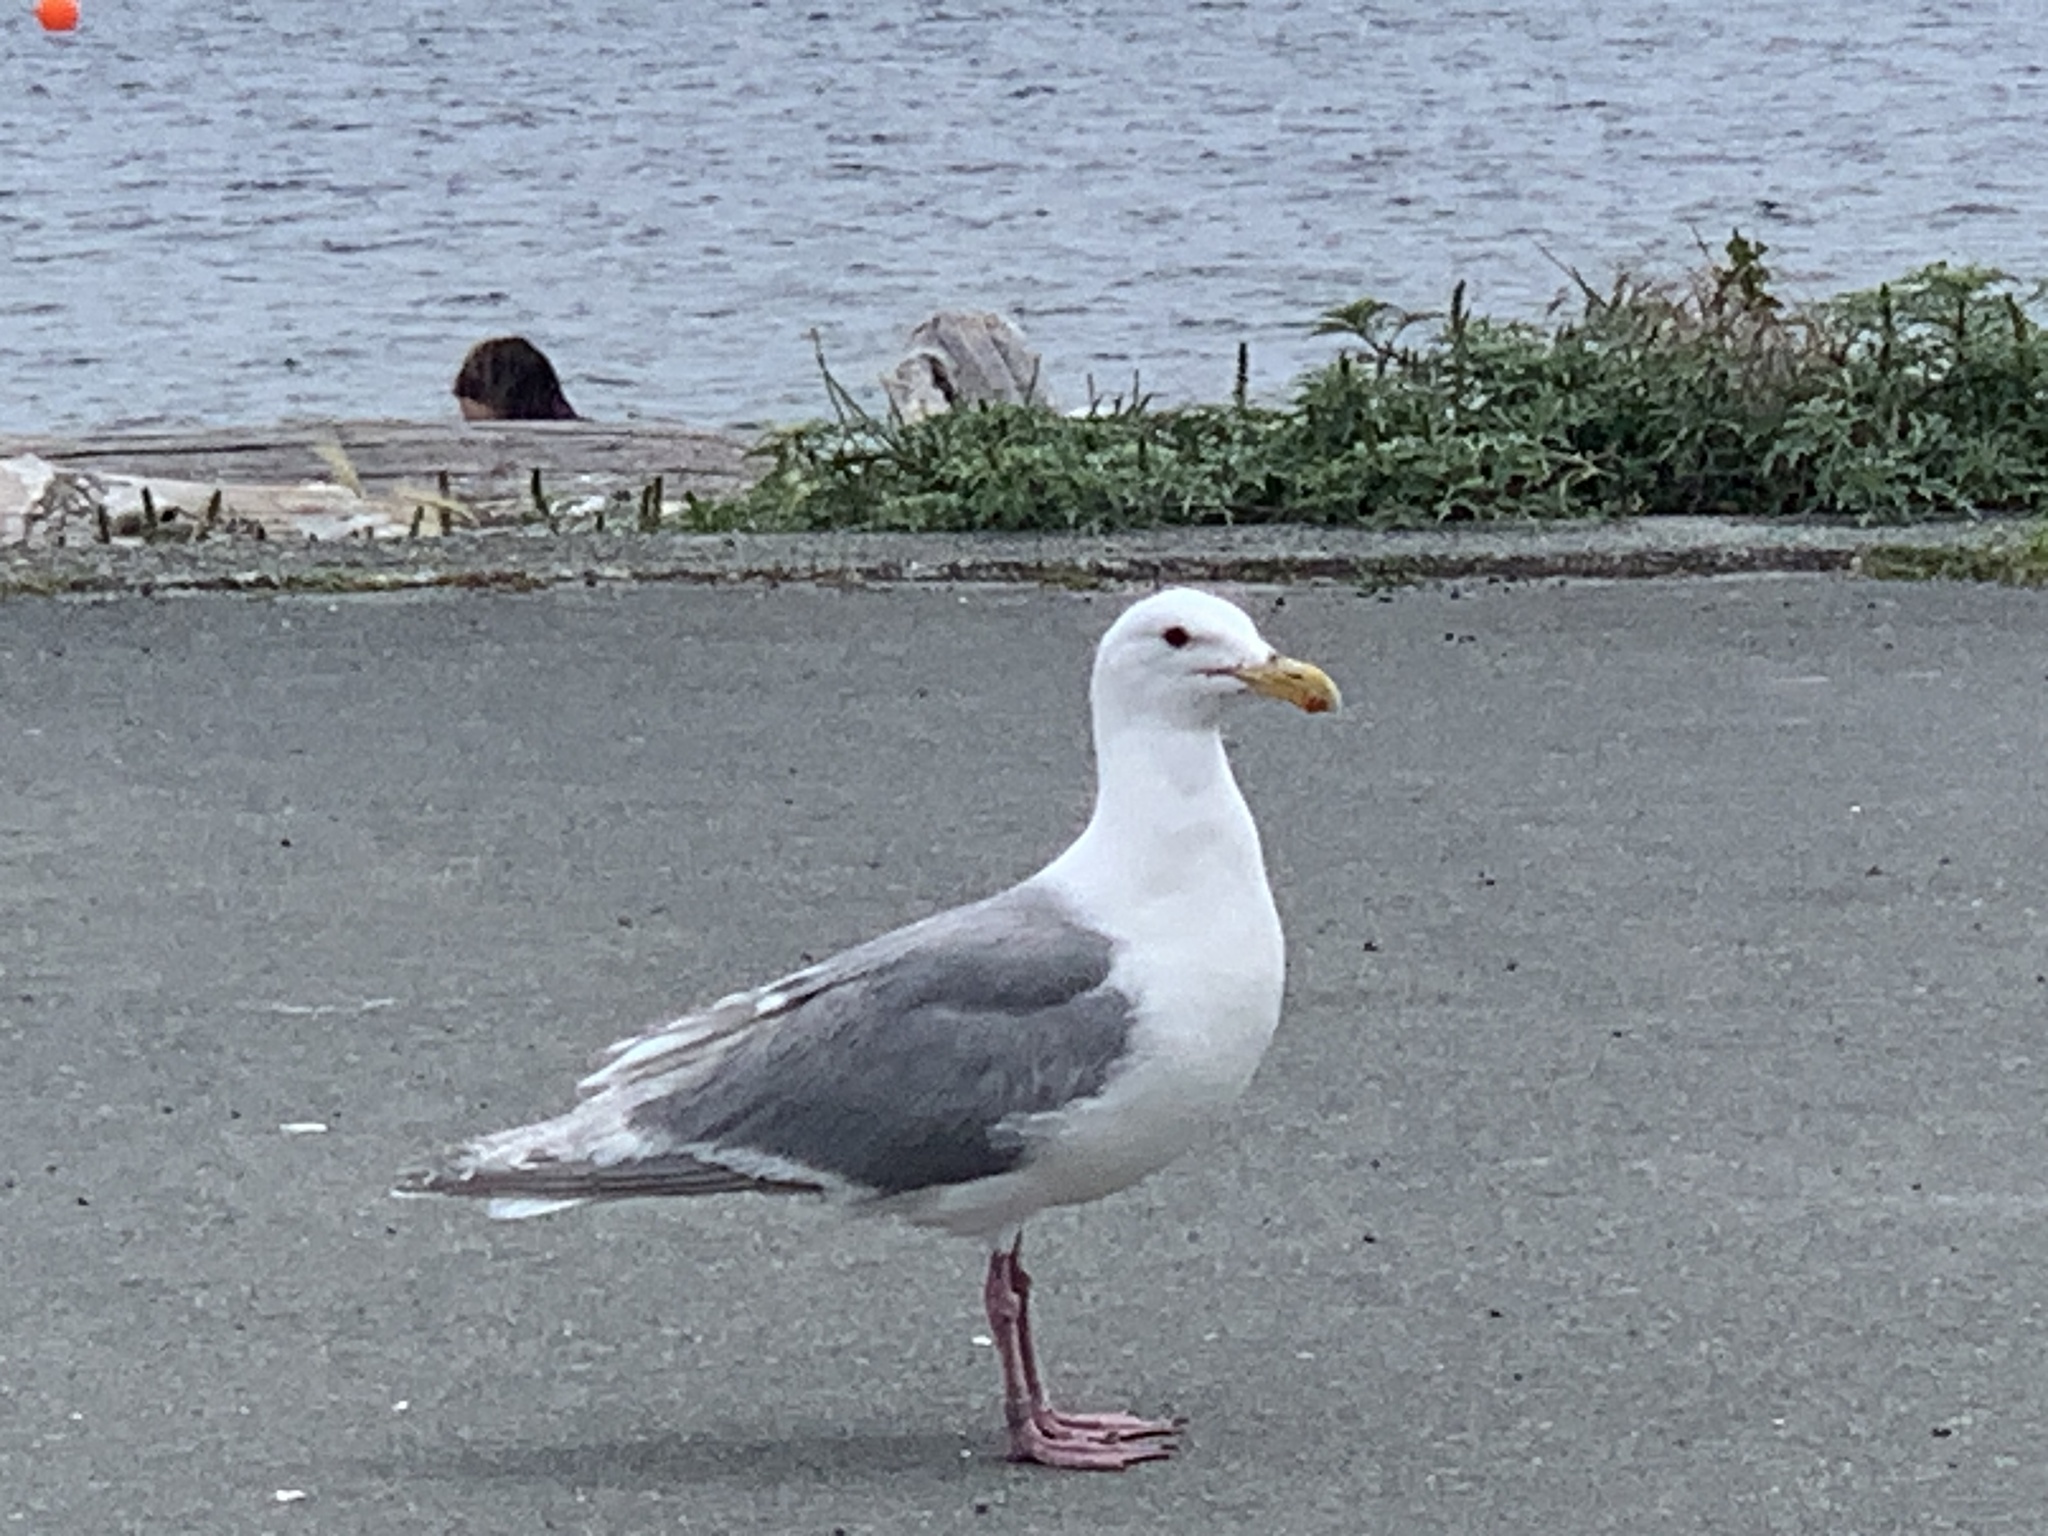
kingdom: Animalia
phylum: Chordata
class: Aves
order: Charadriiformes
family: Laridae
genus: Larus
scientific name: Larus glaucescens
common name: Glaucous-winged gull
